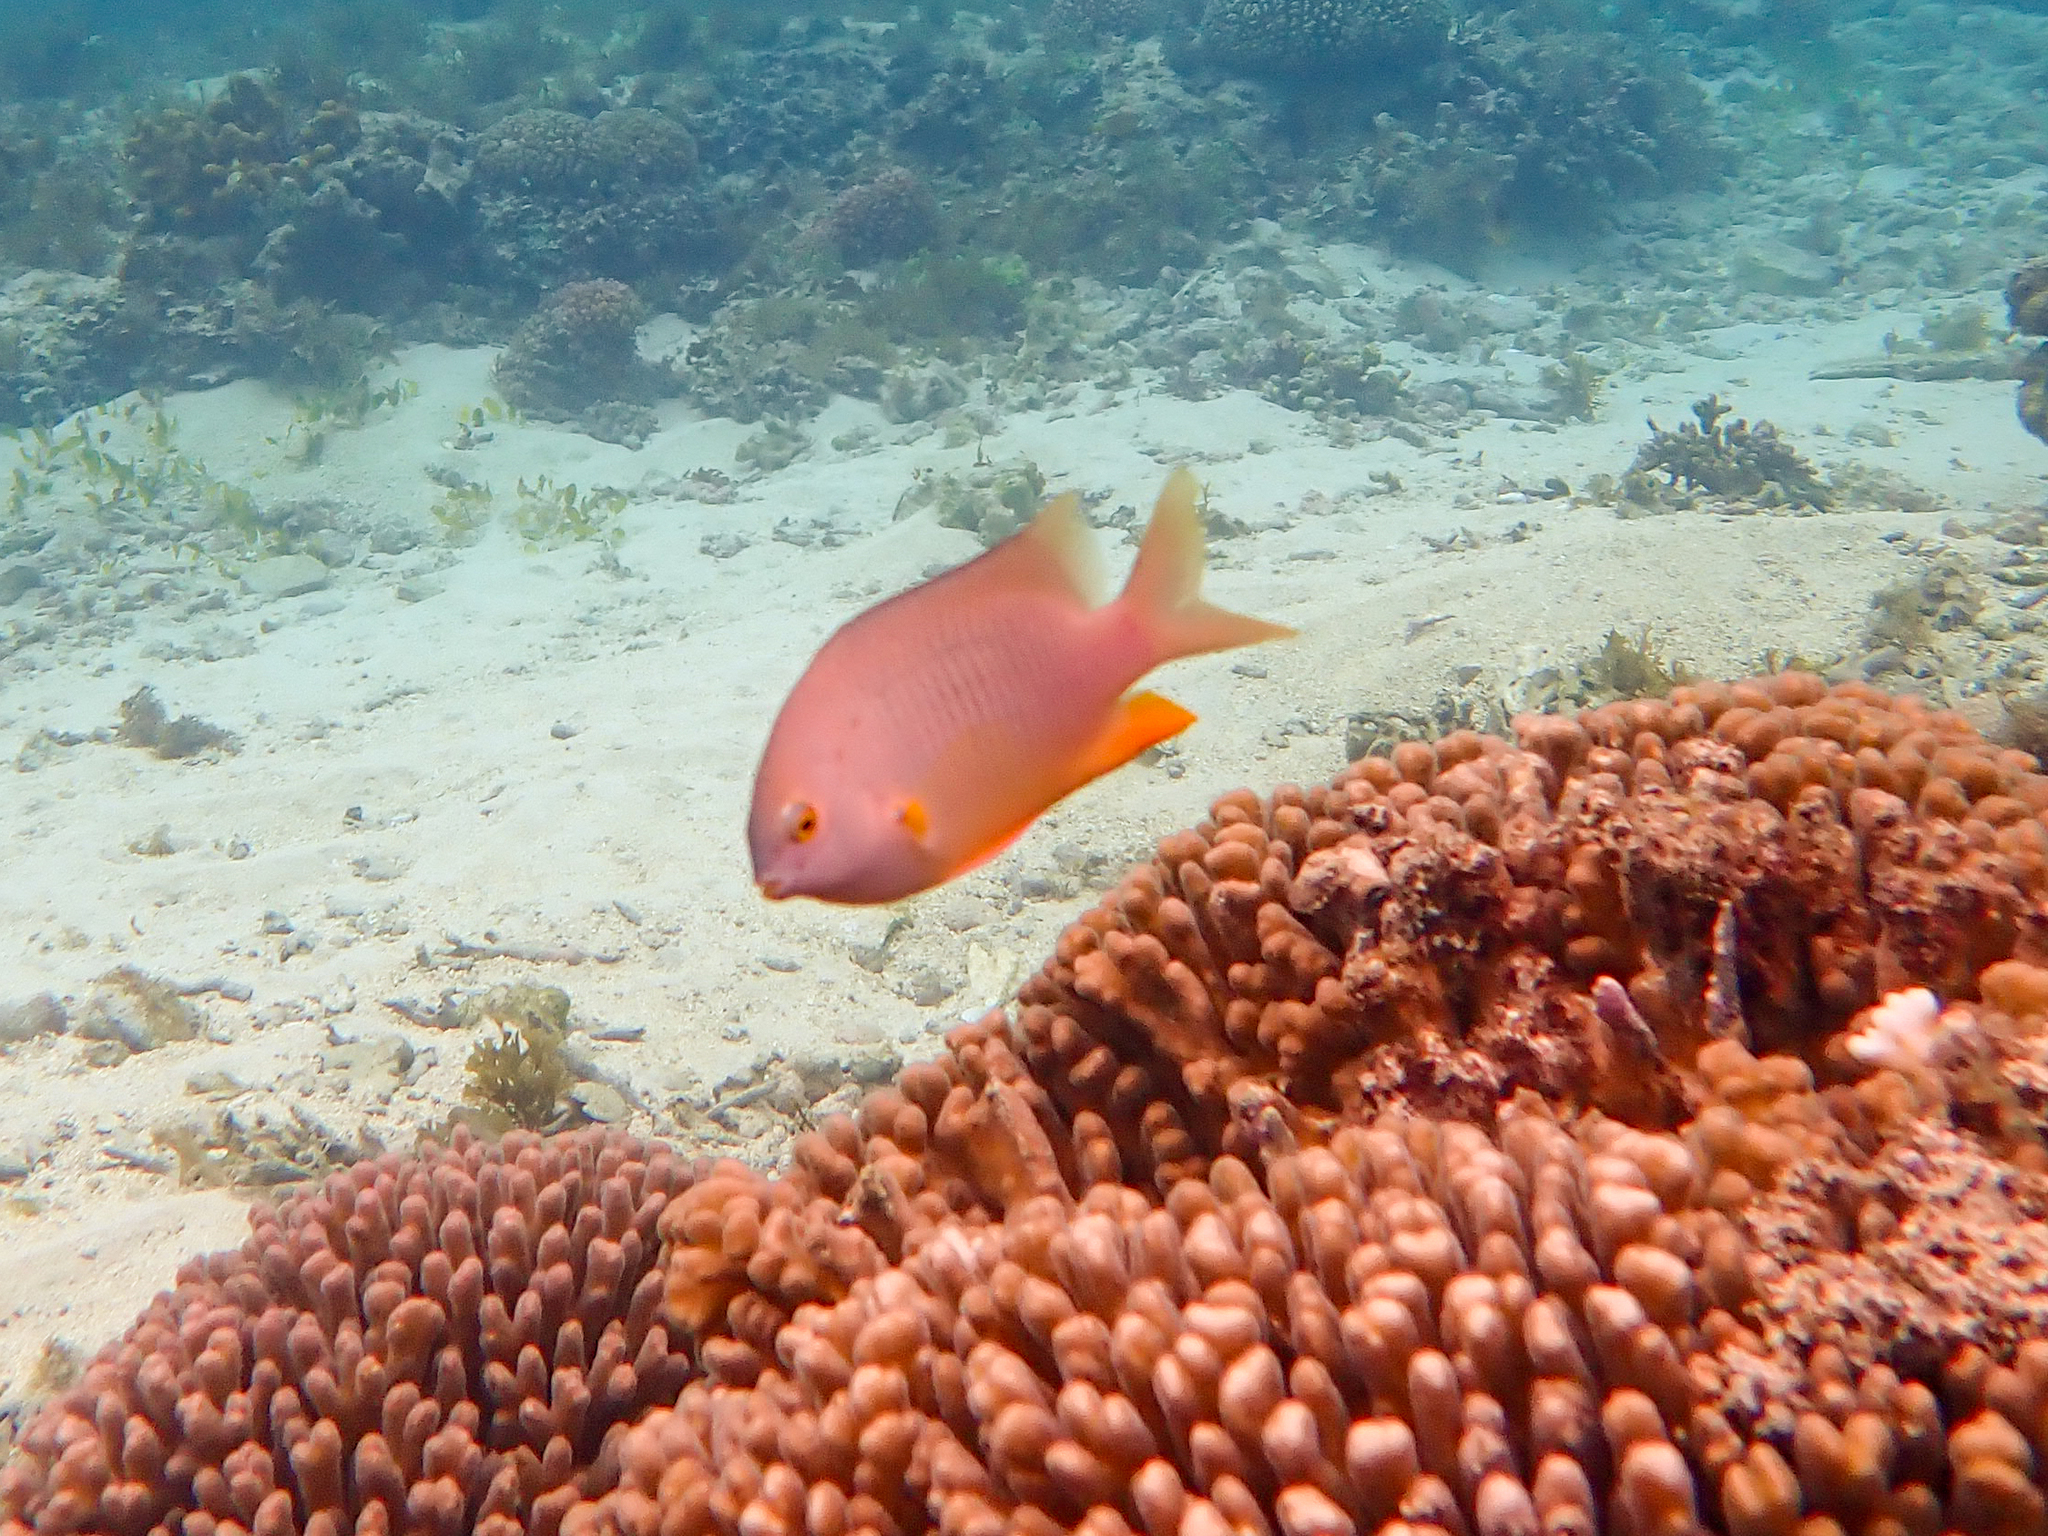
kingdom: Animalia
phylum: Chordata
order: Perciformes
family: Pomacentridae
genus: Stegastes
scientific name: Stegastes gascoynei
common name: Coral sea gregory
